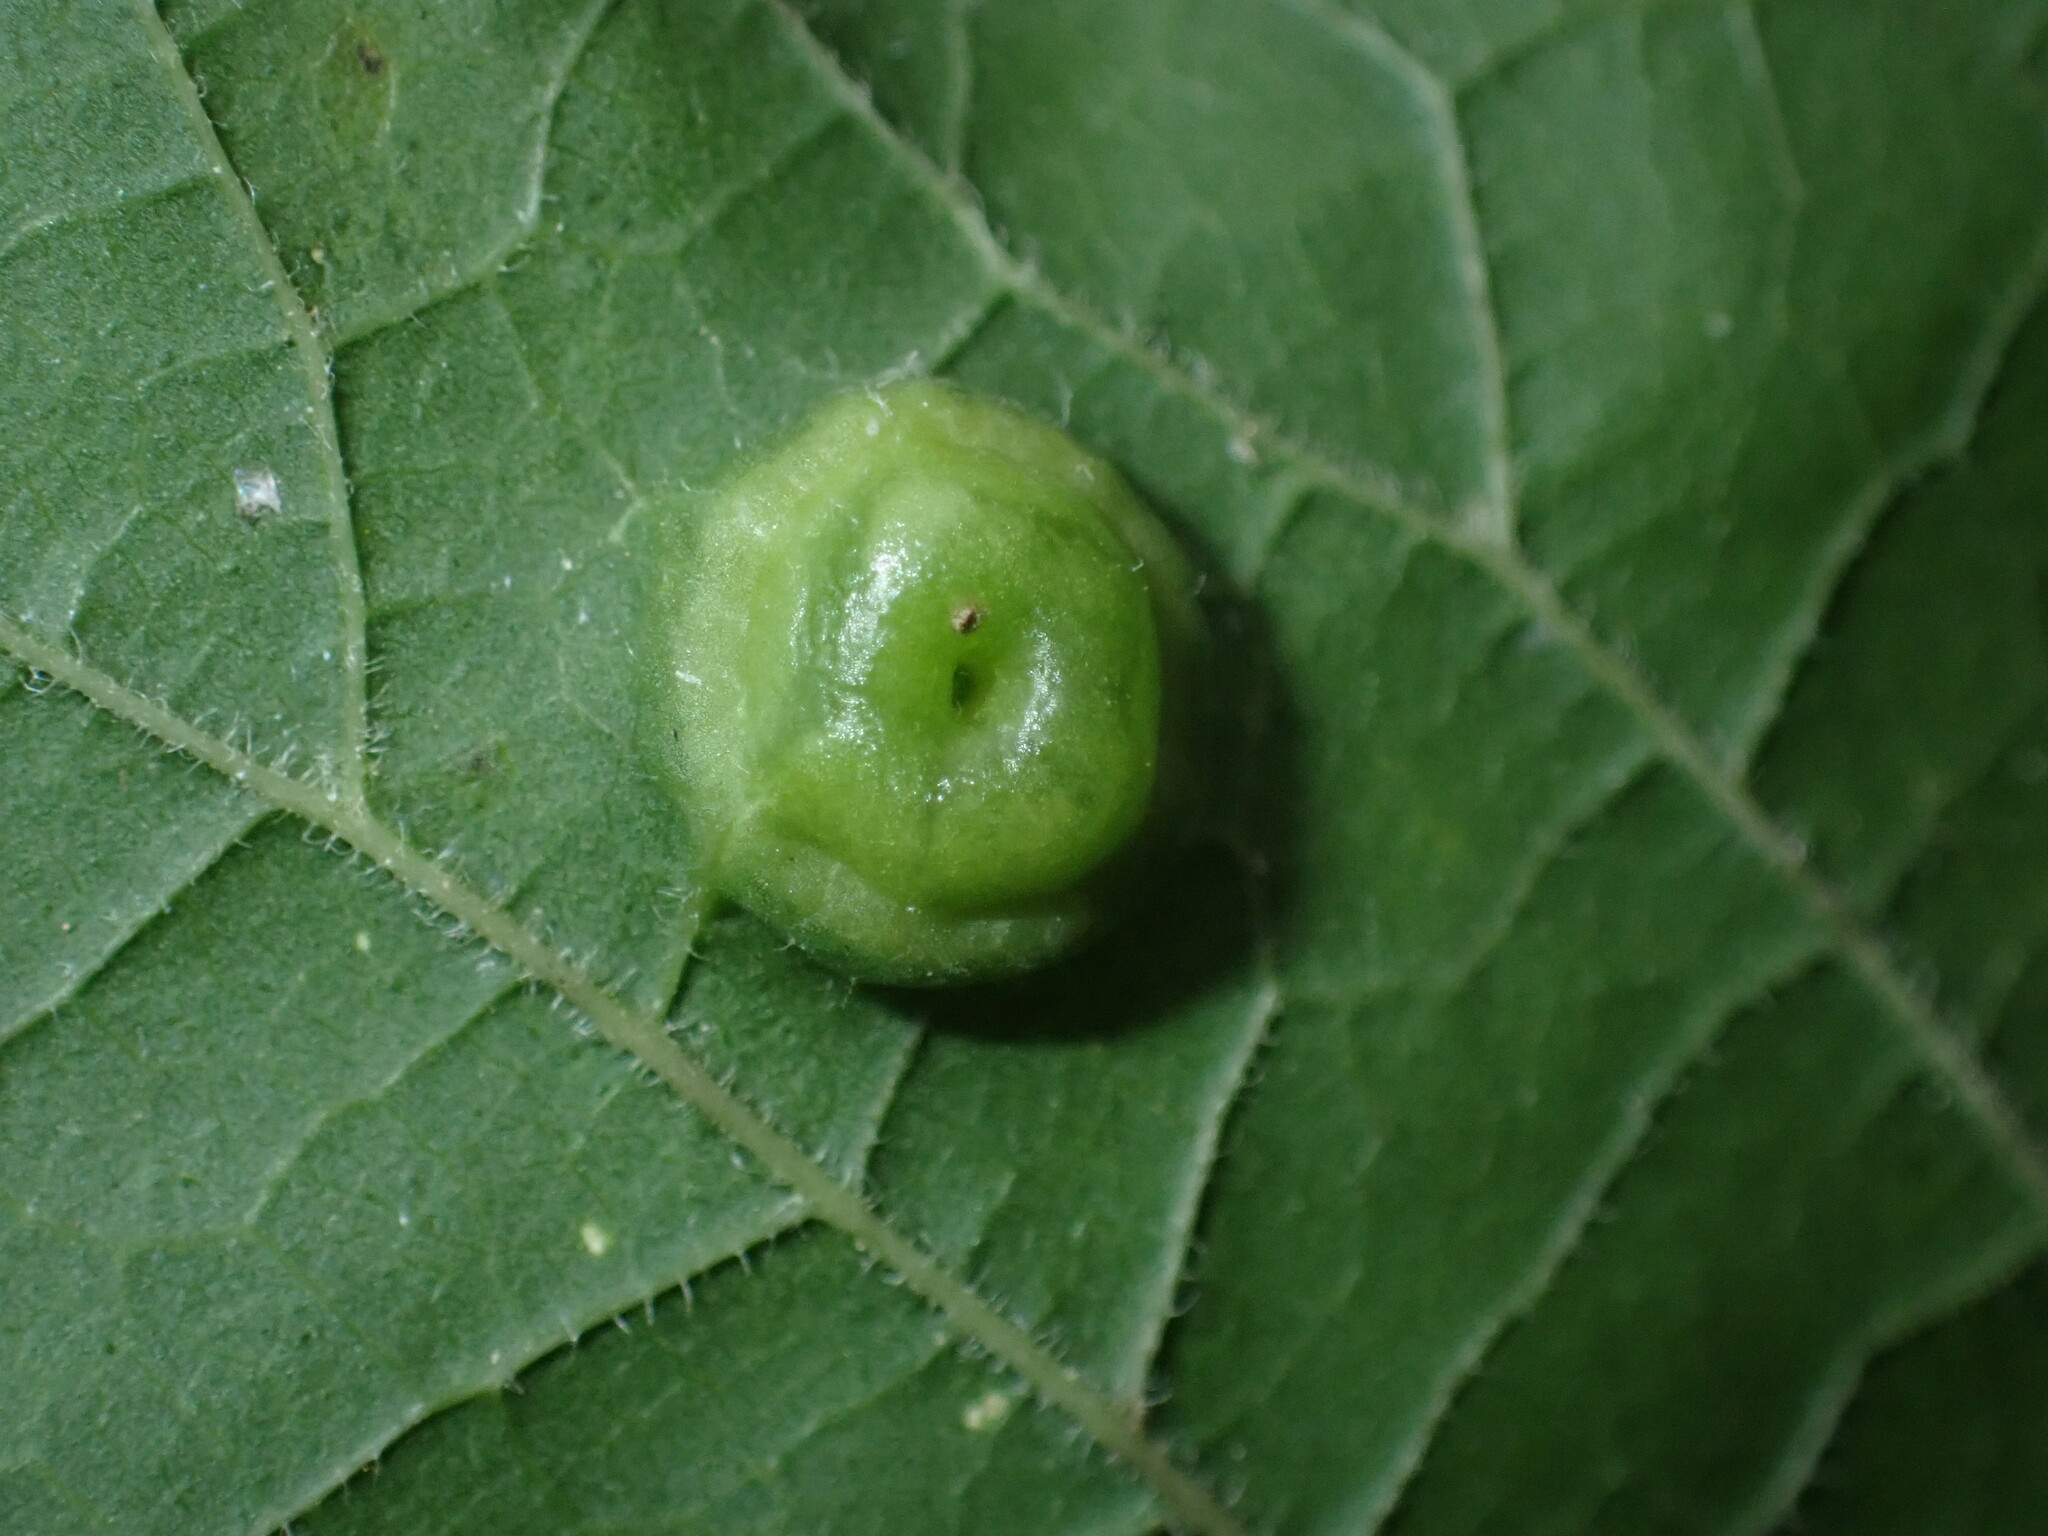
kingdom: Animalia
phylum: Arthropoda
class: Insecta
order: Hemiptera
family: Aphalaridae
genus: Pachypsylla
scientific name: Pachypsylla celtidisumbilicus
